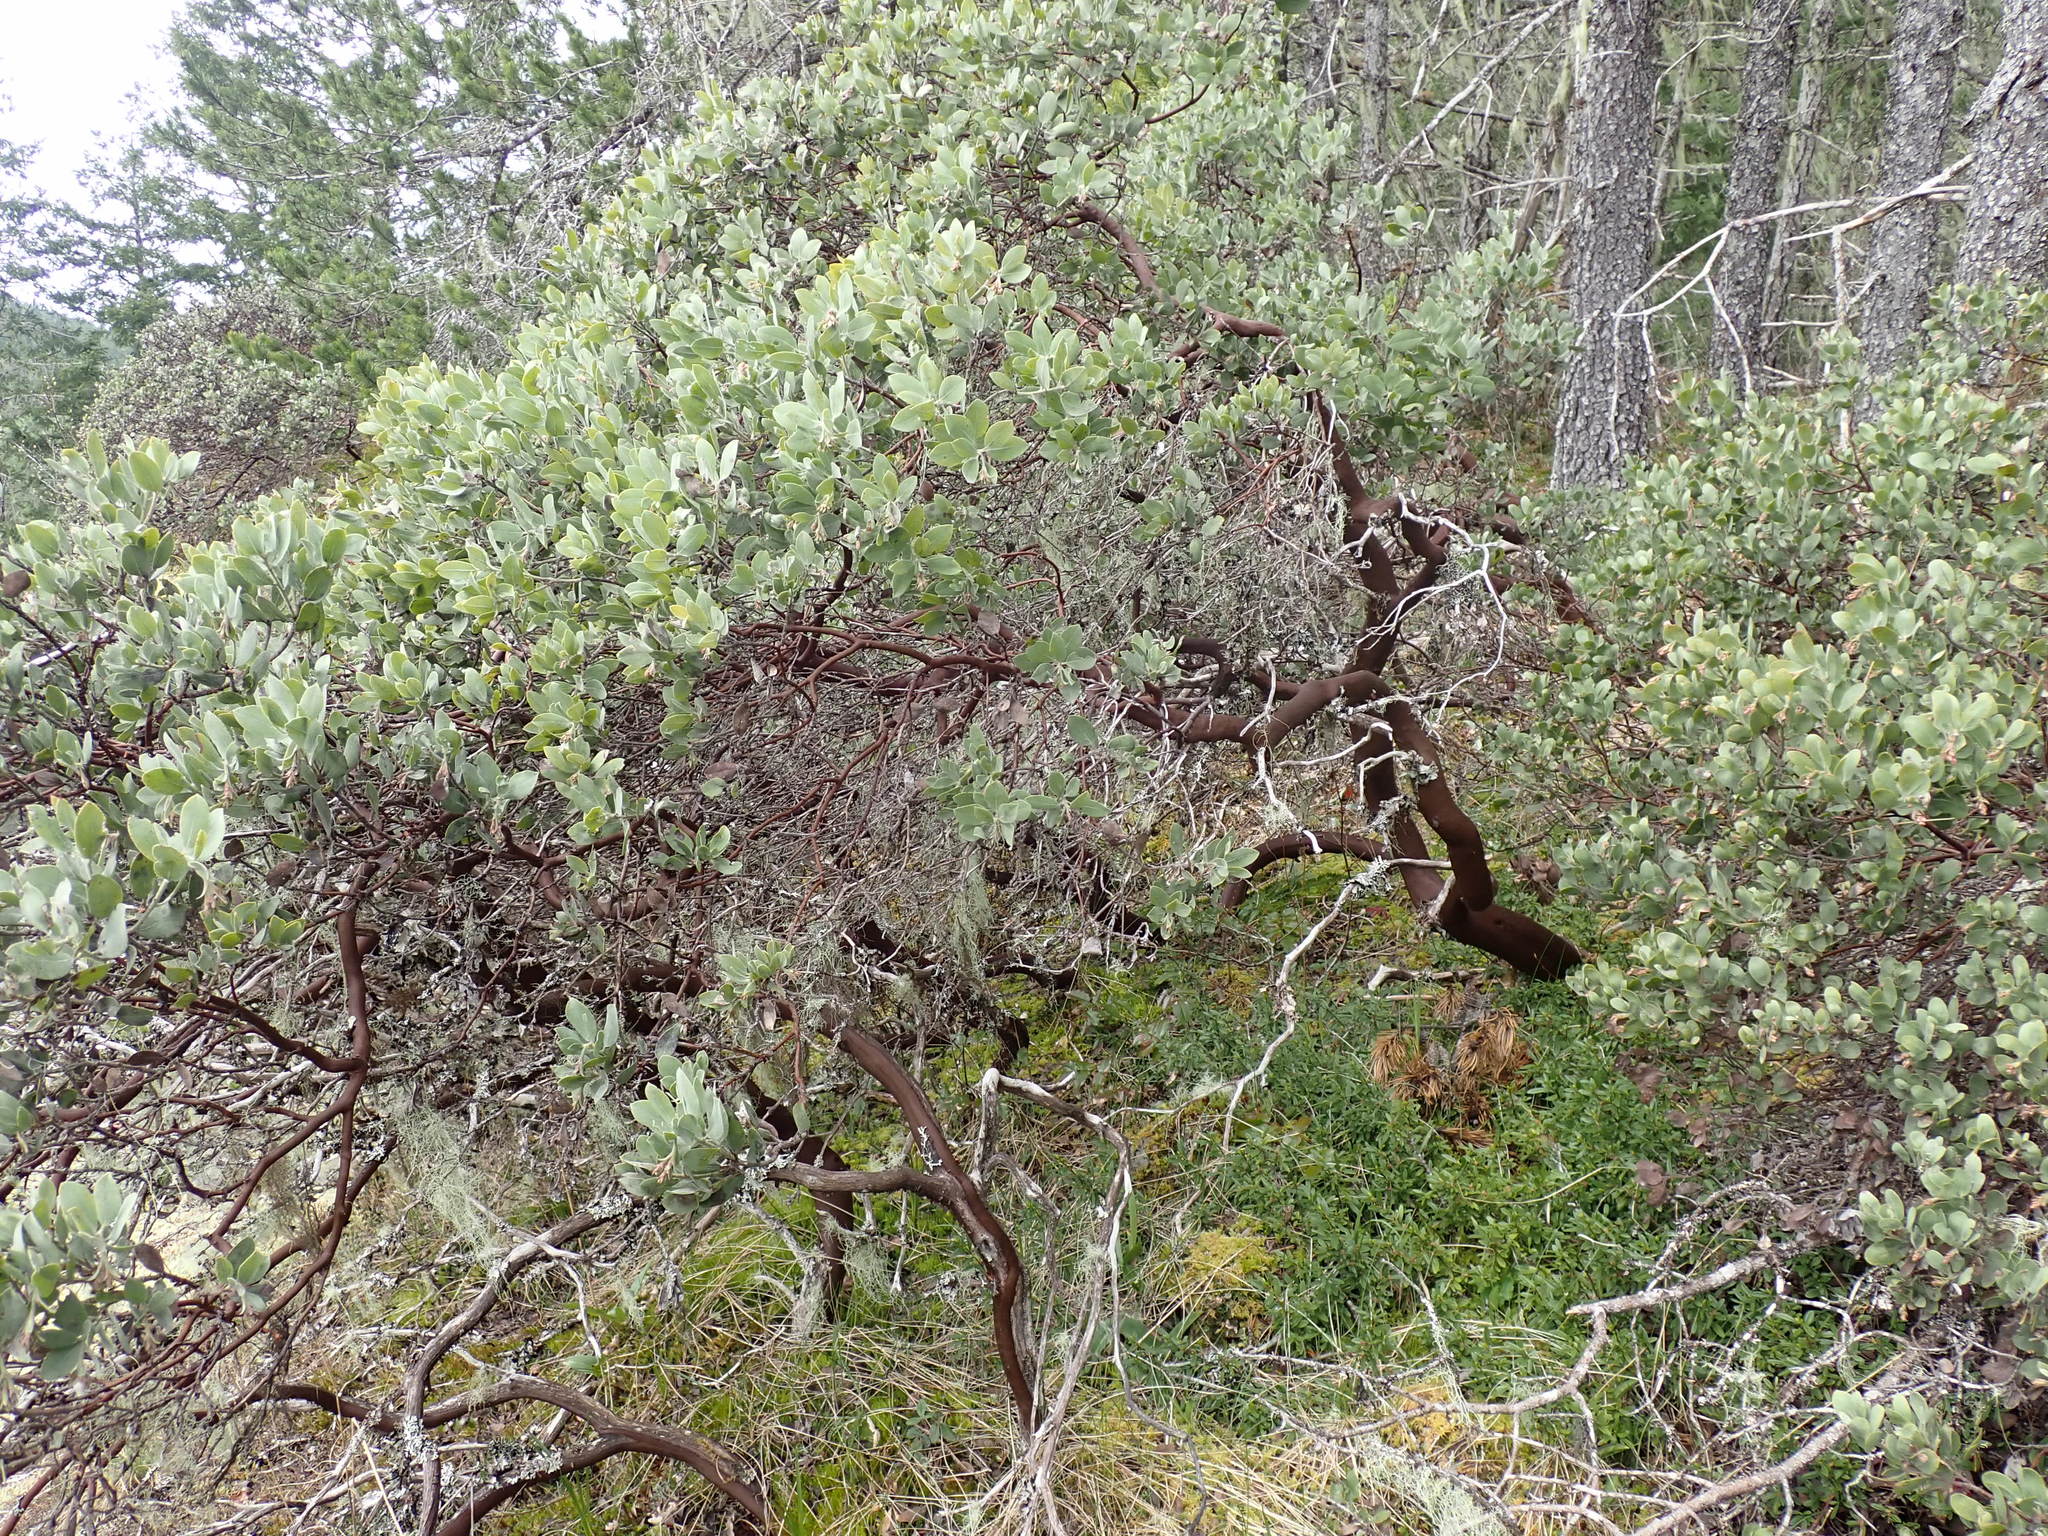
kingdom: Plantae
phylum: Tracheophyta
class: Magnoliopsida
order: Ericales
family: Ericaceae
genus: Arctostaphylos
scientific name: Arctostaphylos columbiana
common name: Bristly bearberry
